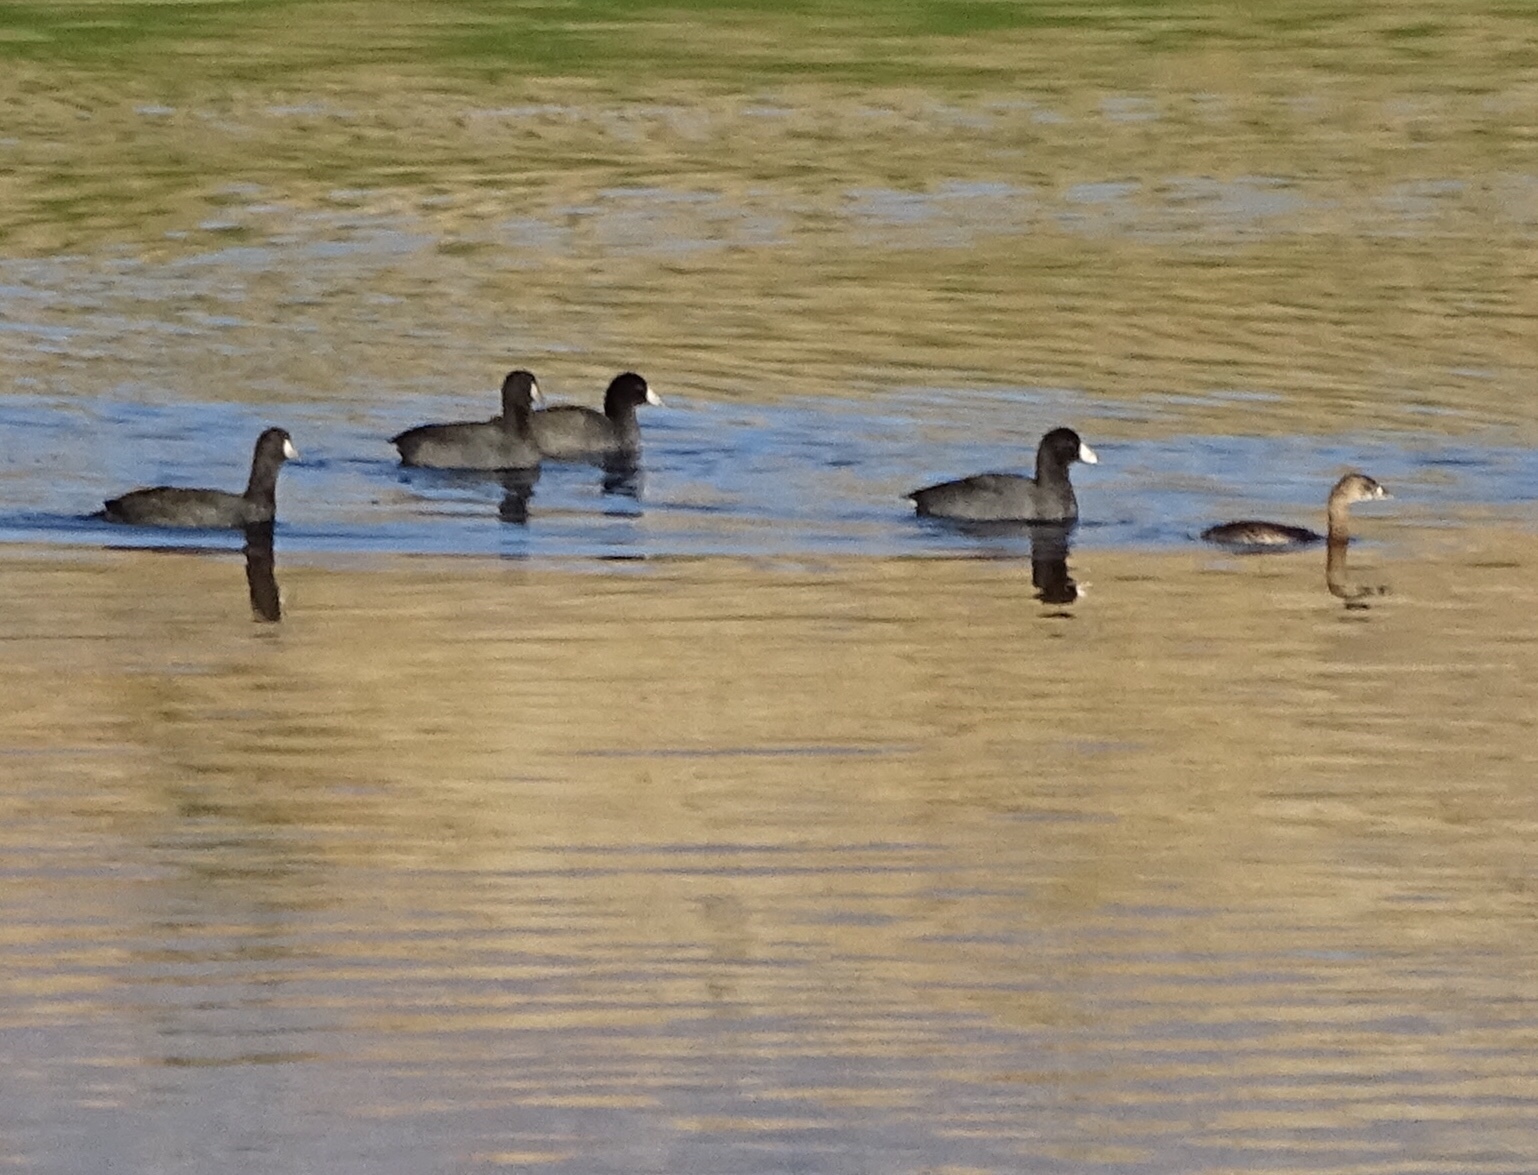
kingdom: Animalia
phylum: Chordata
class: Aves
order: Gruiformes
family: Rallidae
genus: Fulica
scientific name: Fulica americana
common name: American coot
